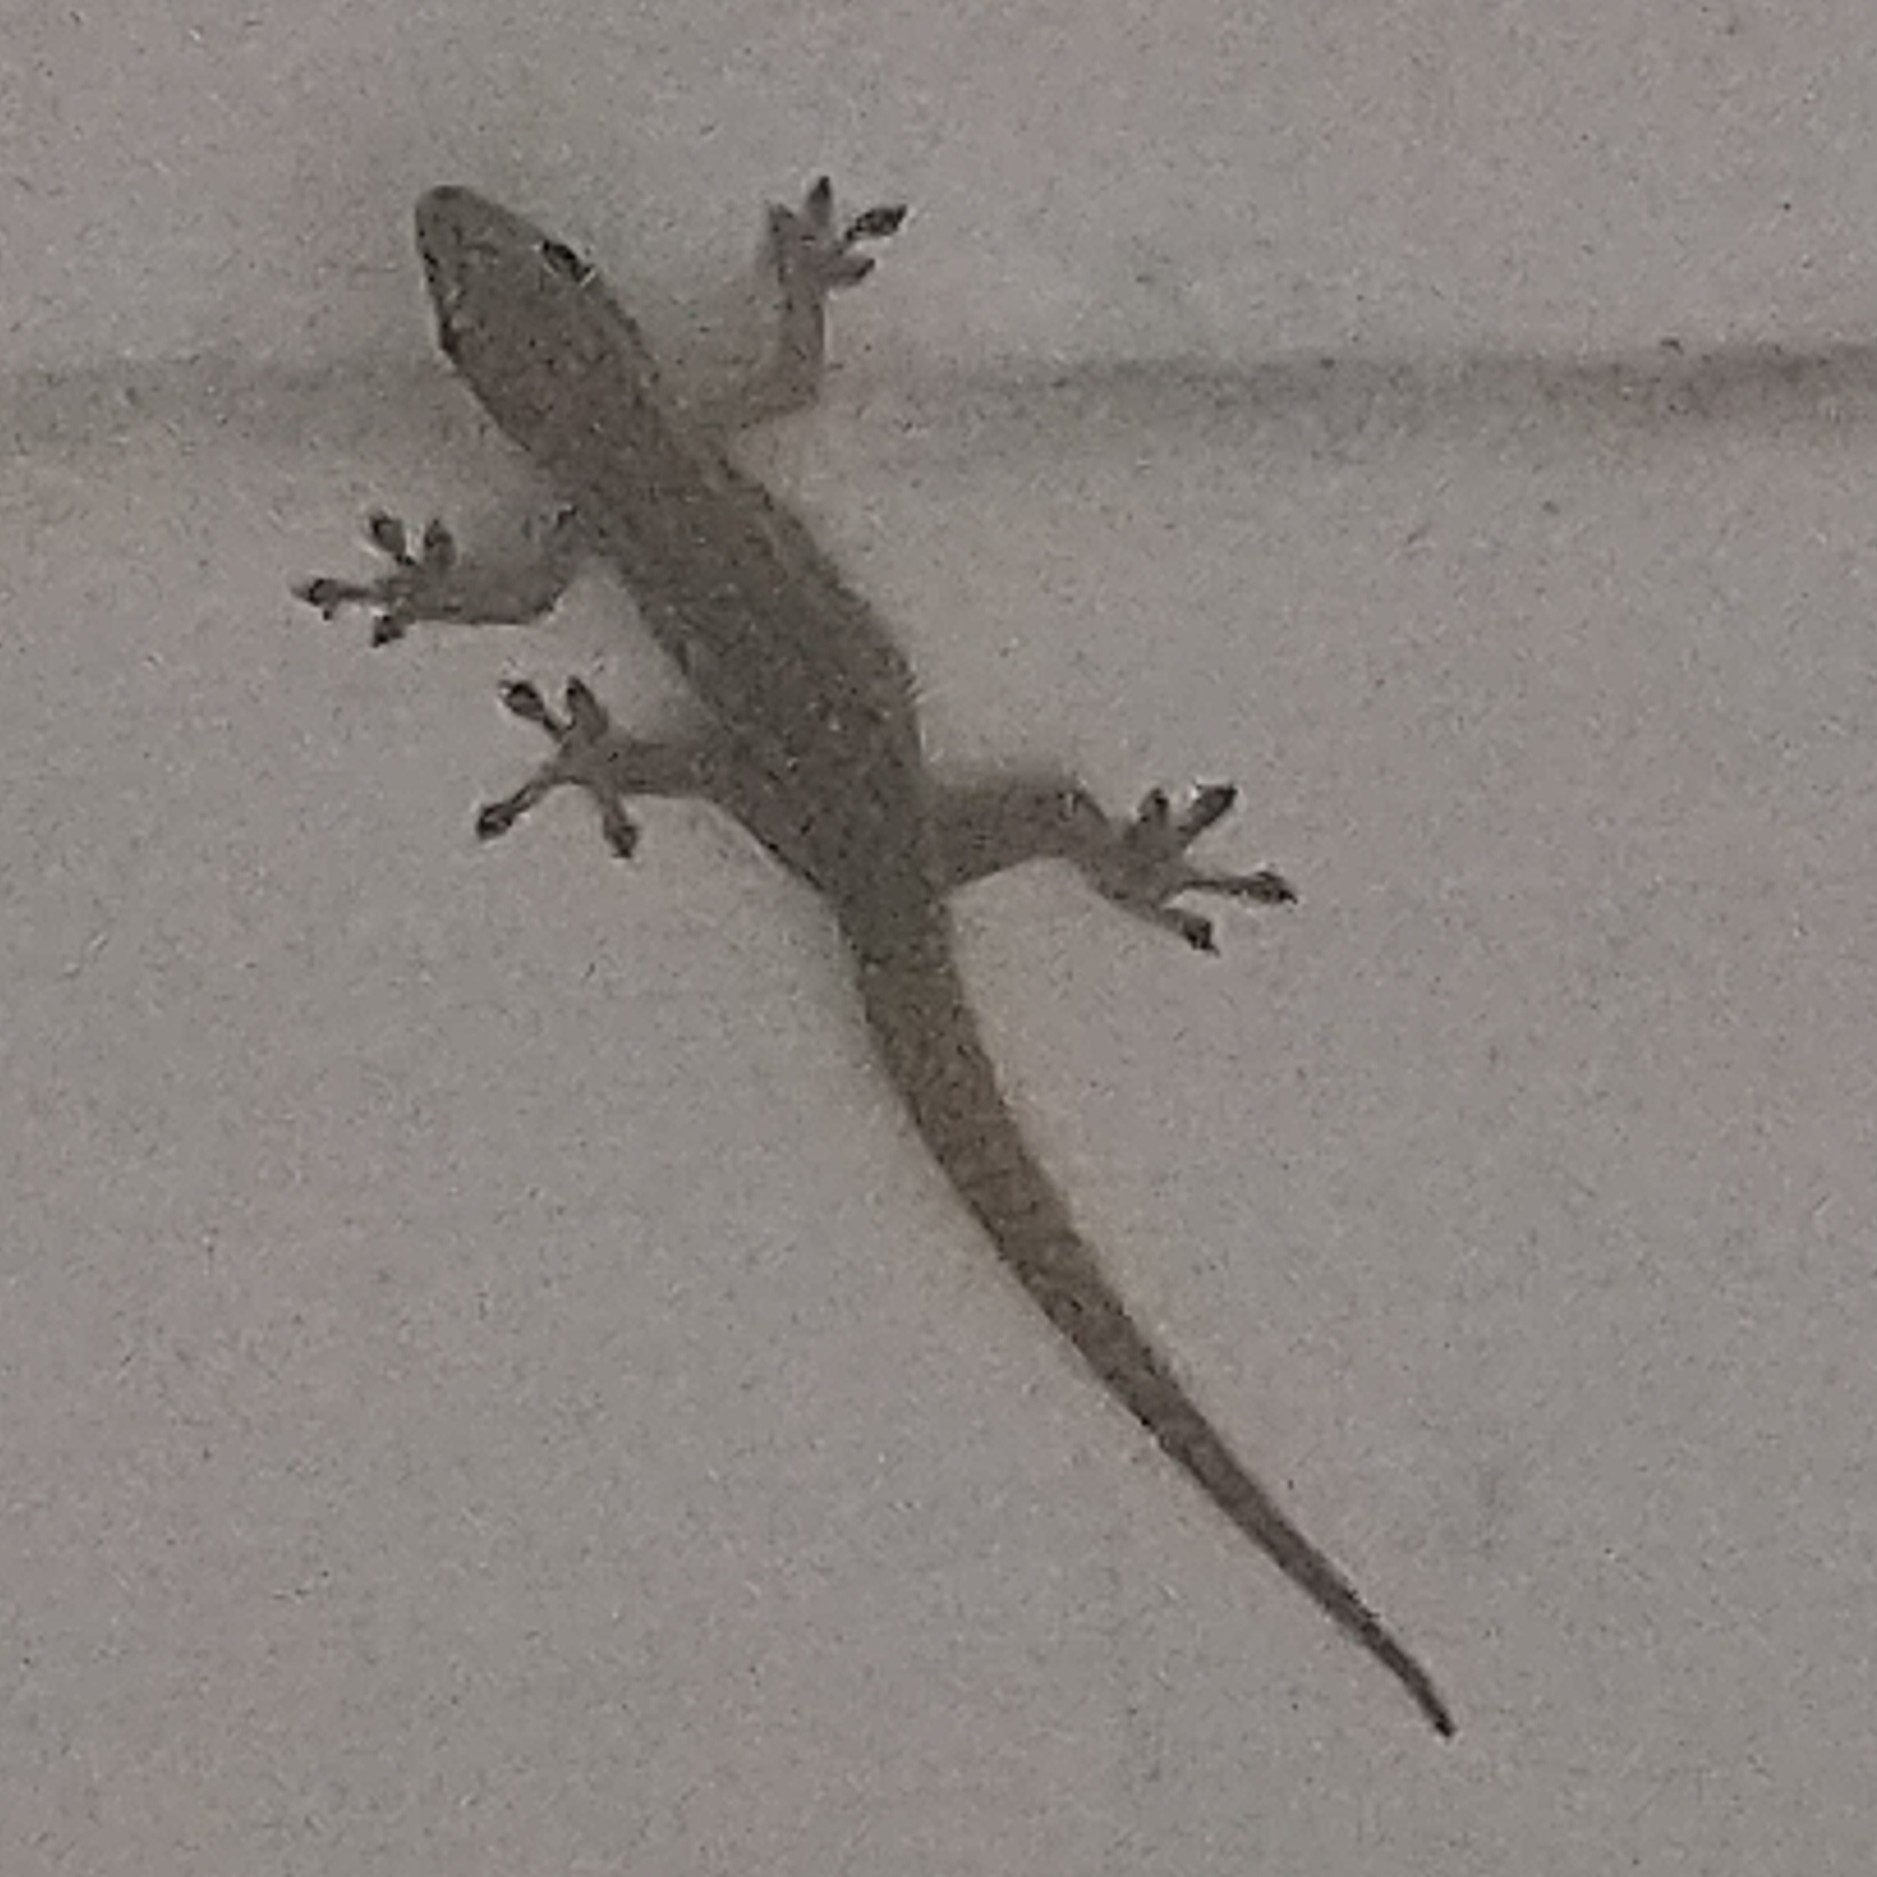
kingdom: Animalia
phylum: Chordata
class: Squamata
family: Gekkonidae
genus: Lygodactylus
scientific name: Lygodactylus capensis
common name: Cape dwarf gecko
